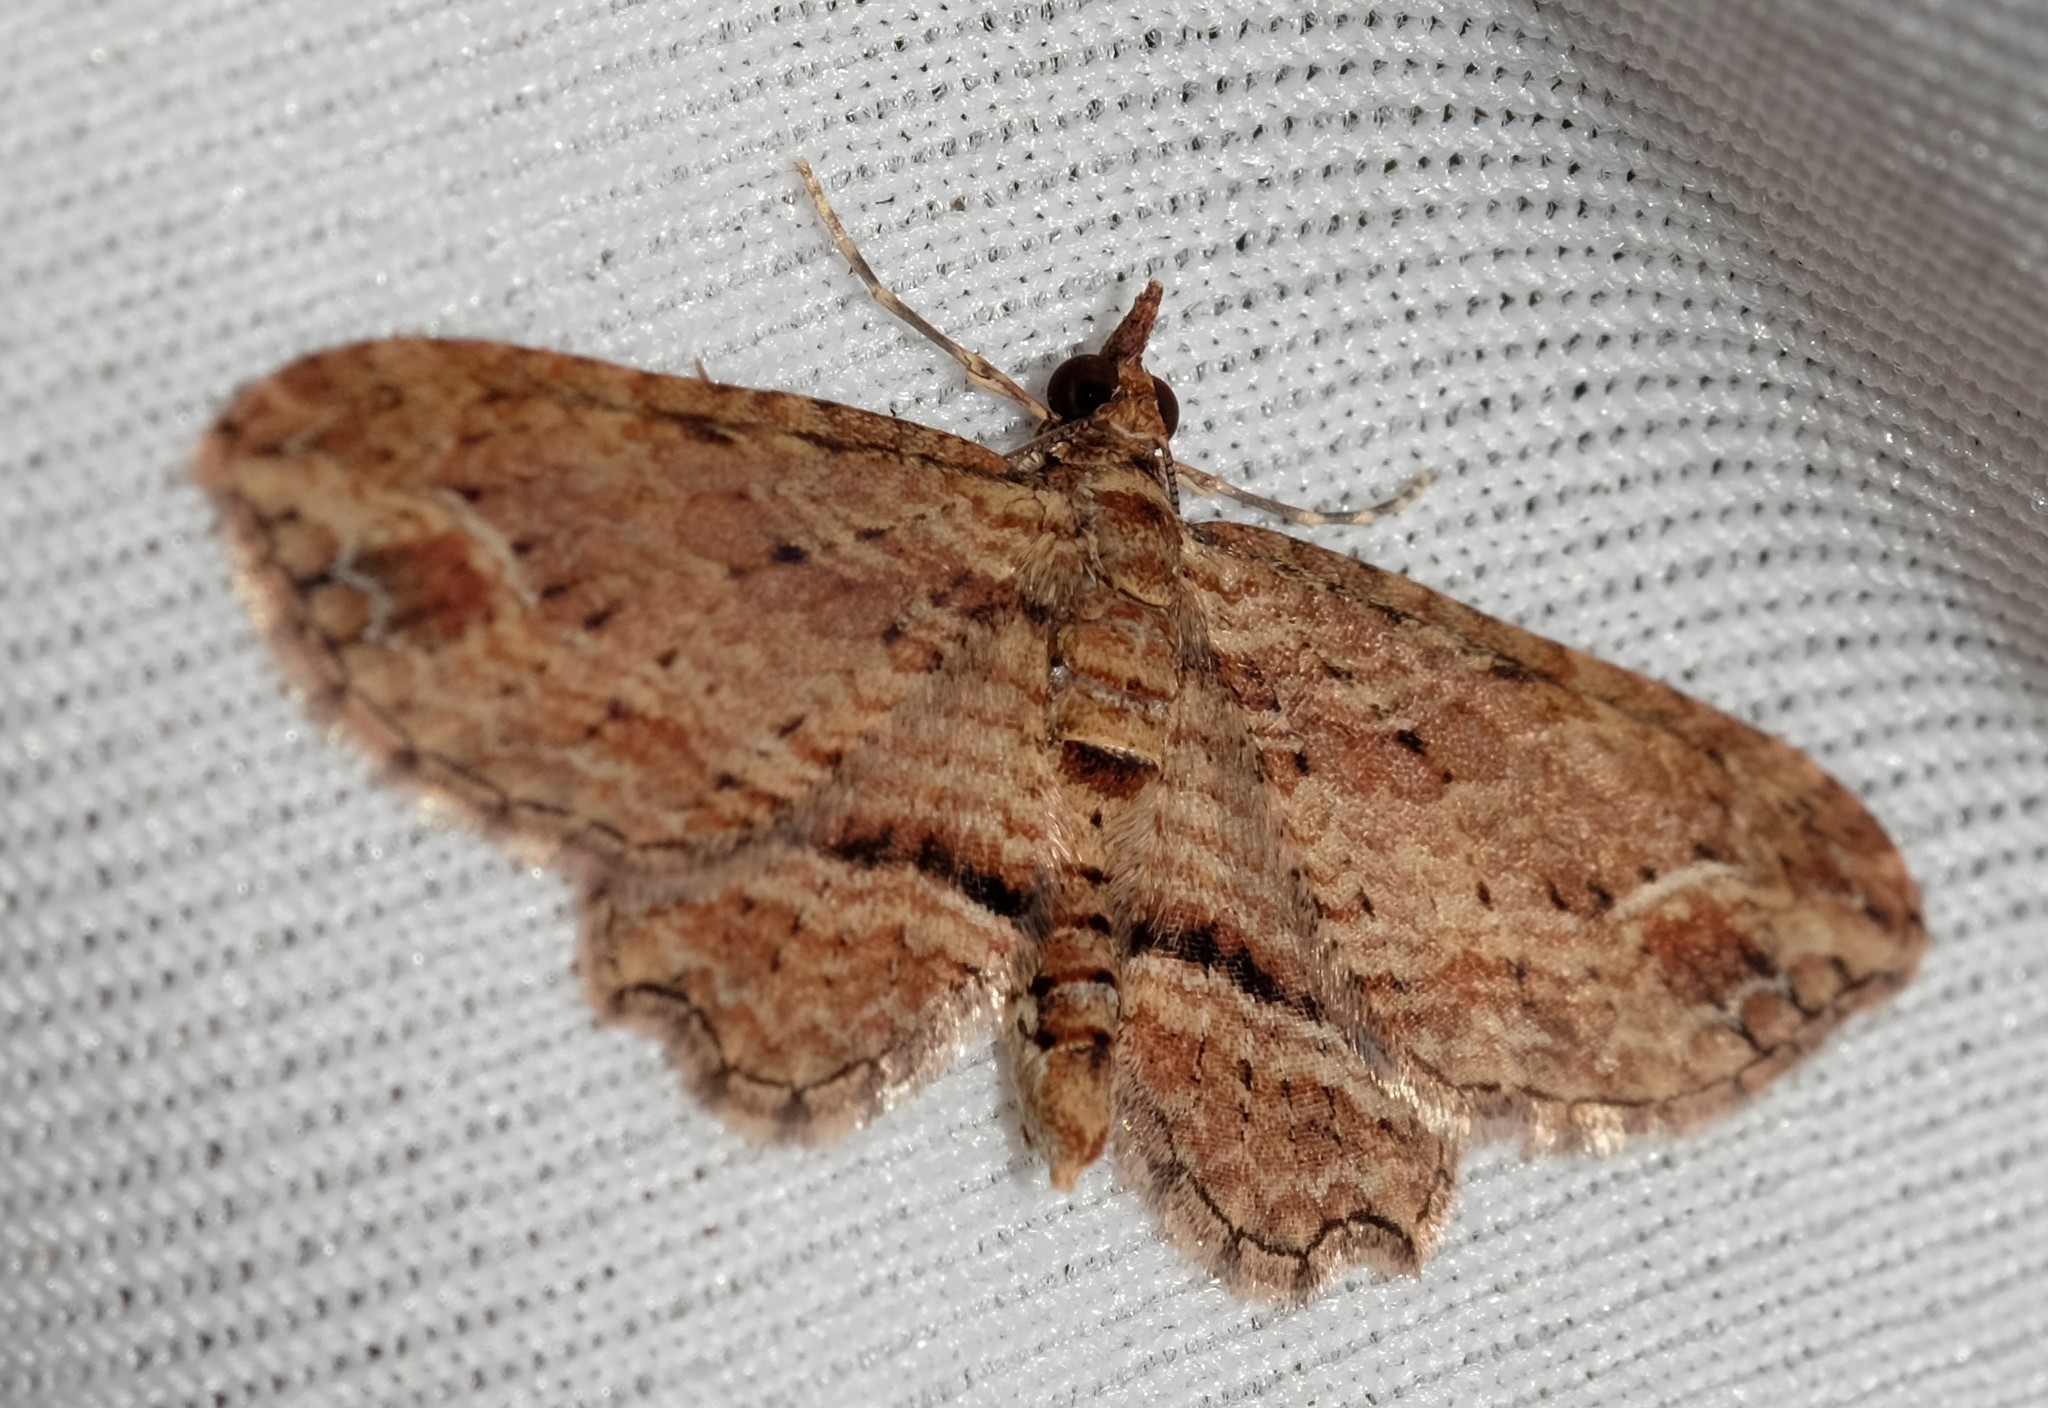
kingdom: Animalia
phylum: Arthropoda
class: Insecta
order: Lepidoptera
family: Geometridae
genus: Chloroclystis
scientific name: Chloroclystis filata
